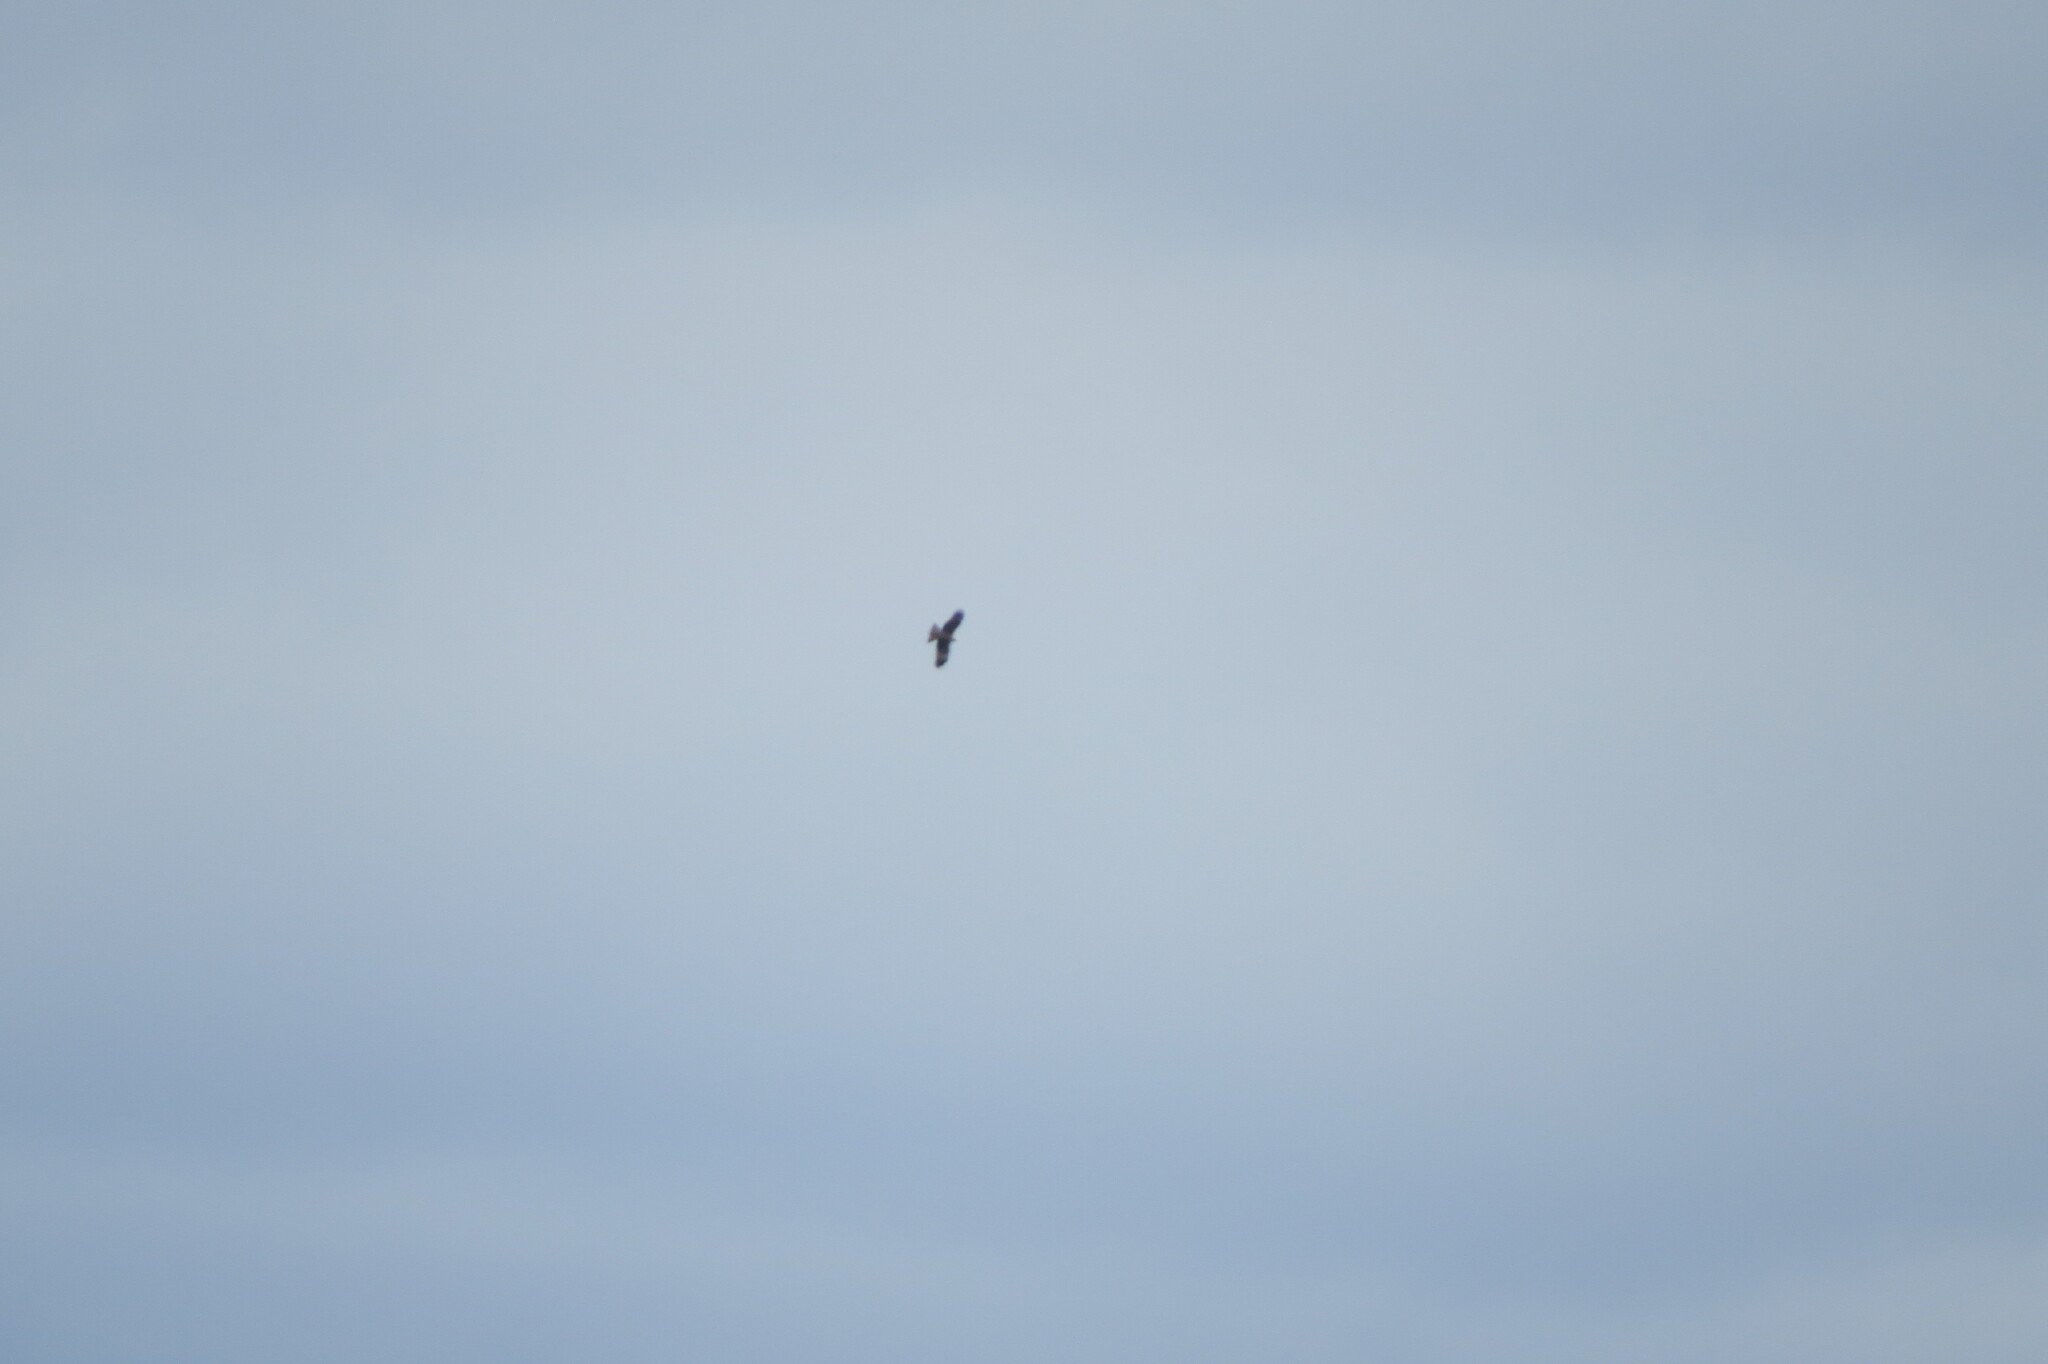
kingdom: Animalia
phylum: Chordata
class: Aves
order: Accipitriformes
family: Accipitridae
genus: Milvus
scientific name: Milvus migrans
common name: Black kite
